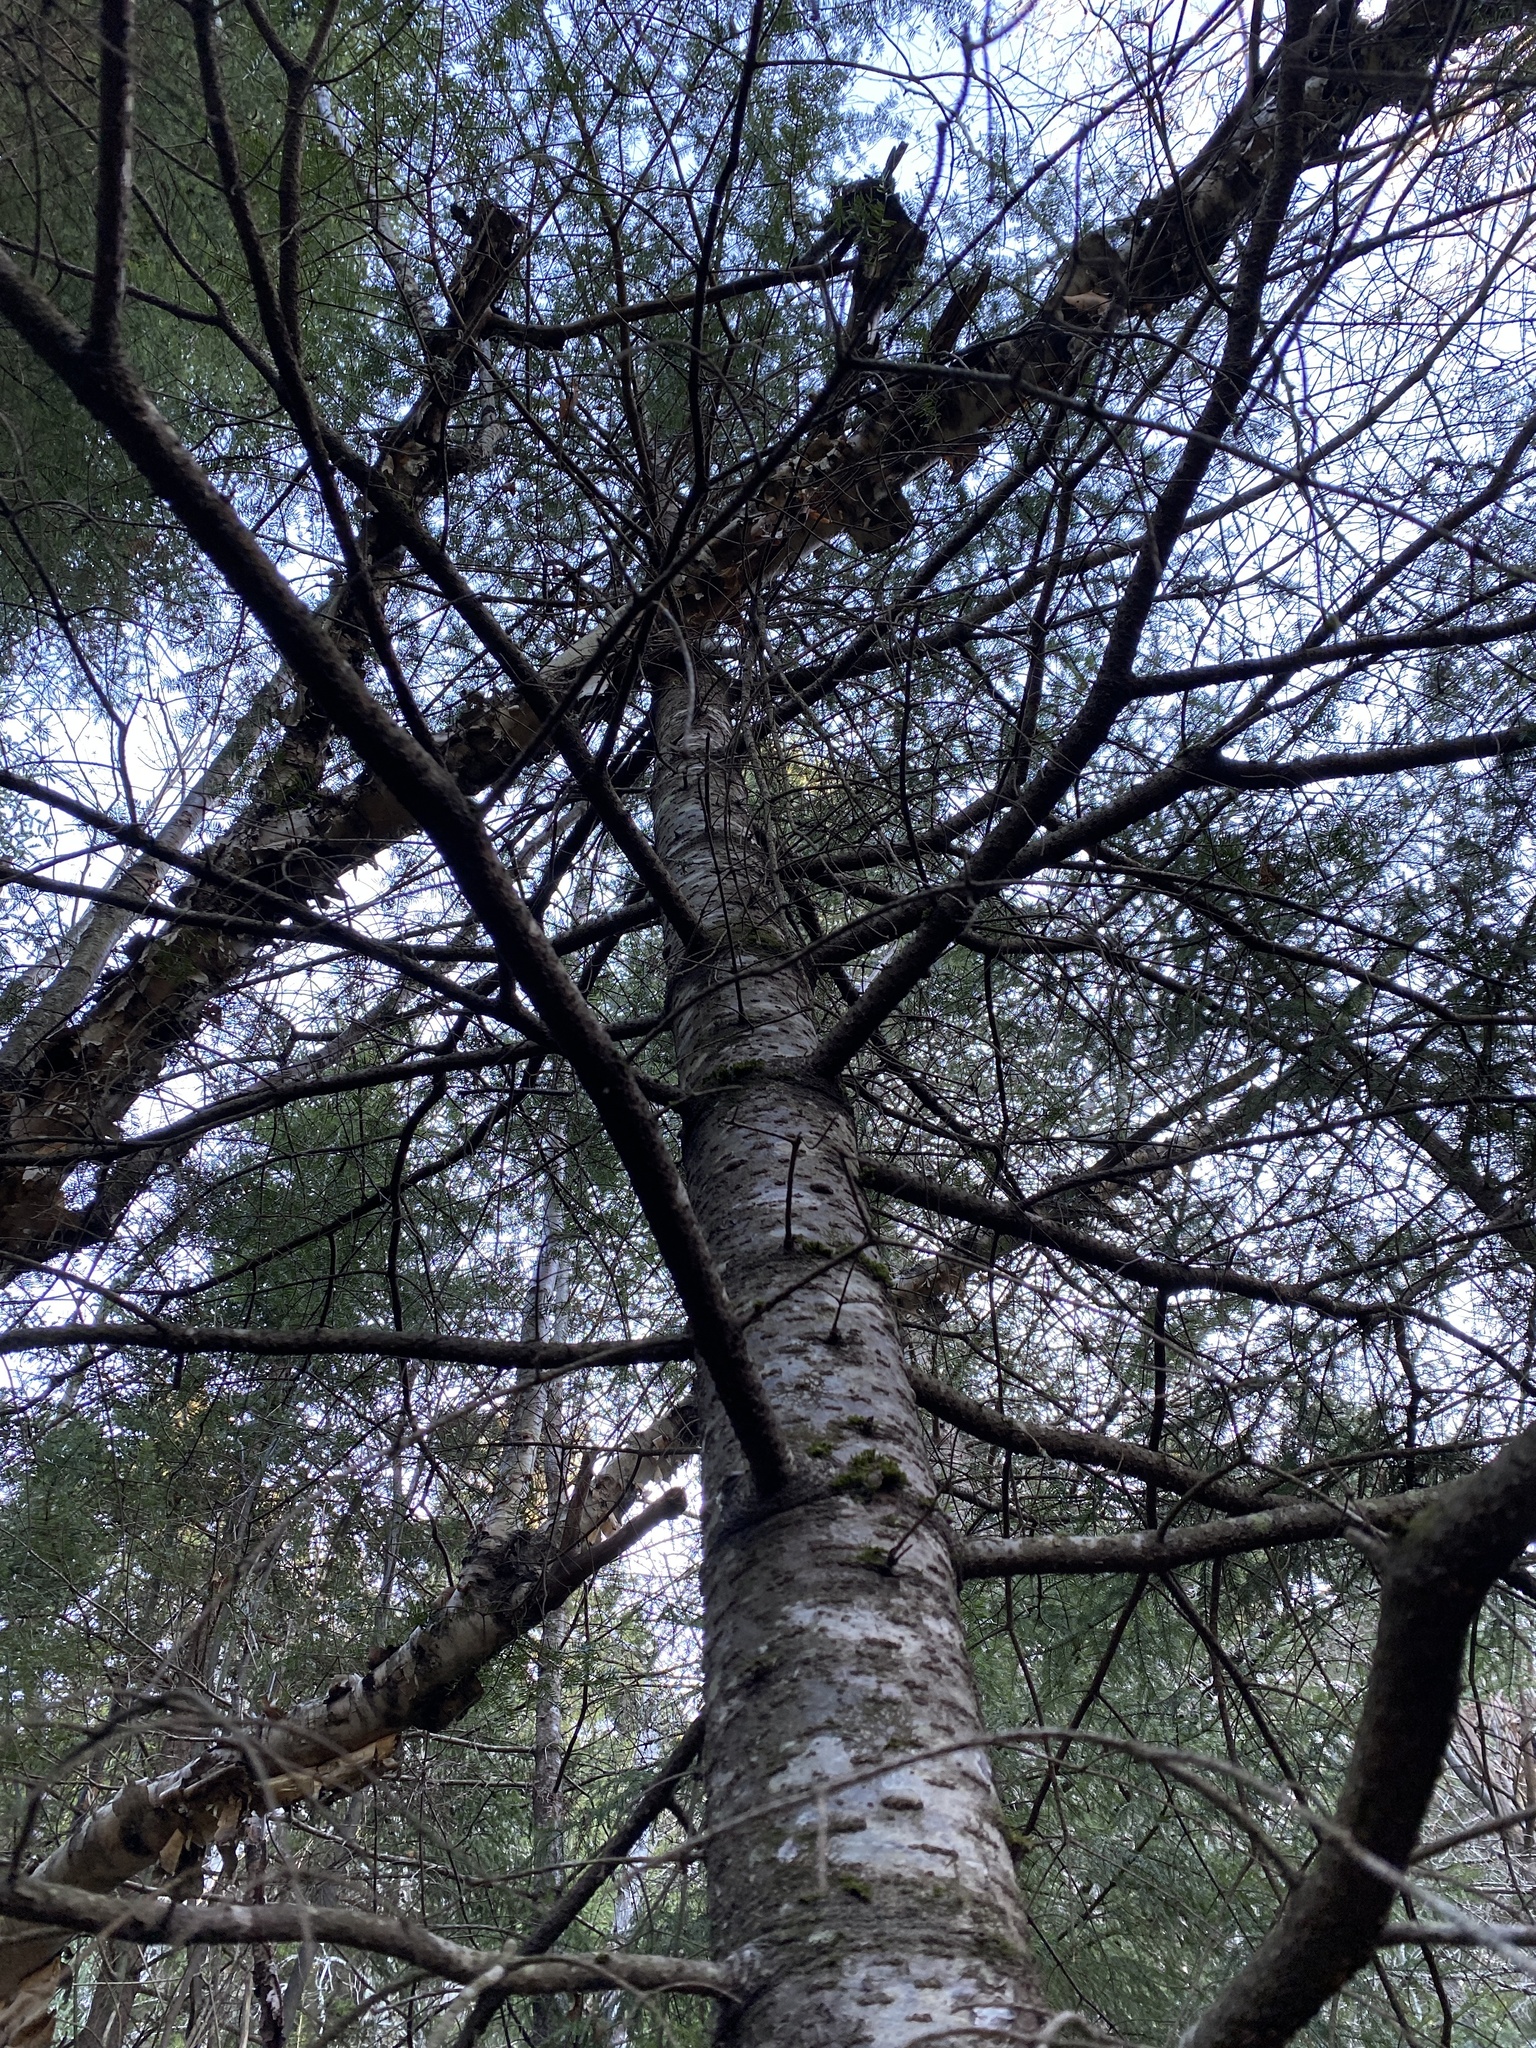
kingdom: Plantae
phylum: Tracheophyta
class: Pinopsida
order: Pinales
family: Pinaceae
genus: Abies
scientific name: Abies balsamea
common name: Balsam fir
